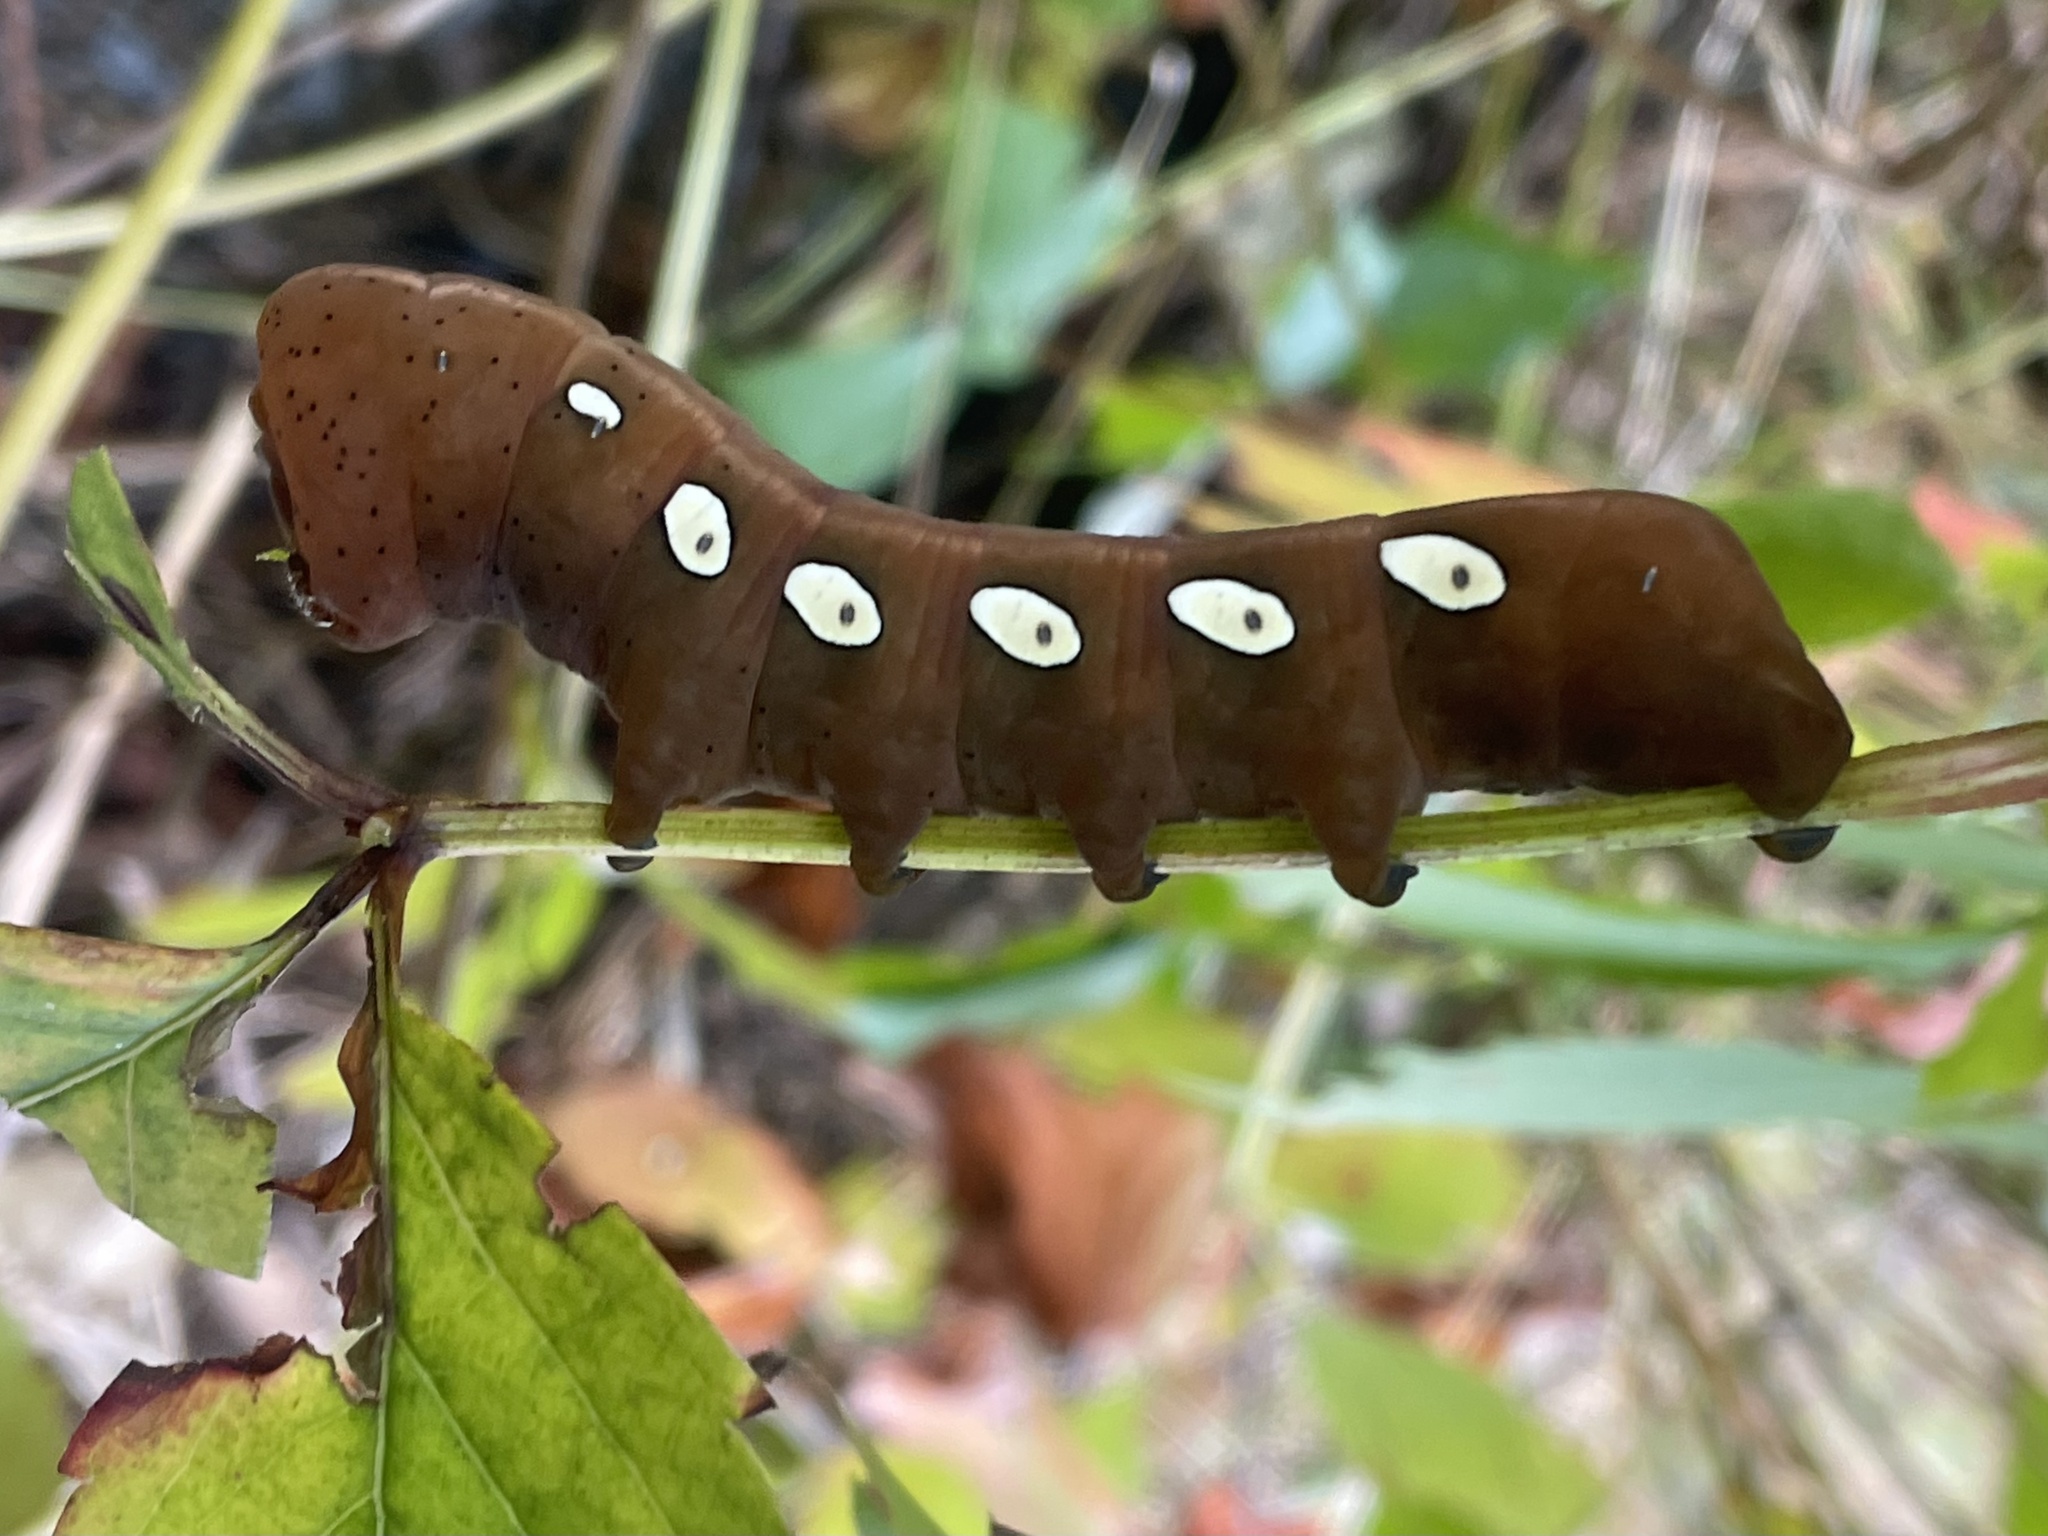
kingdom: Animalia
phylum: Arthropoda
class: Insecta
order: Lepidoptera
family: Sphingidae
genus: Eumorpha
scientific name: Eumorpha pandorus
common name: Pandora sphinx
